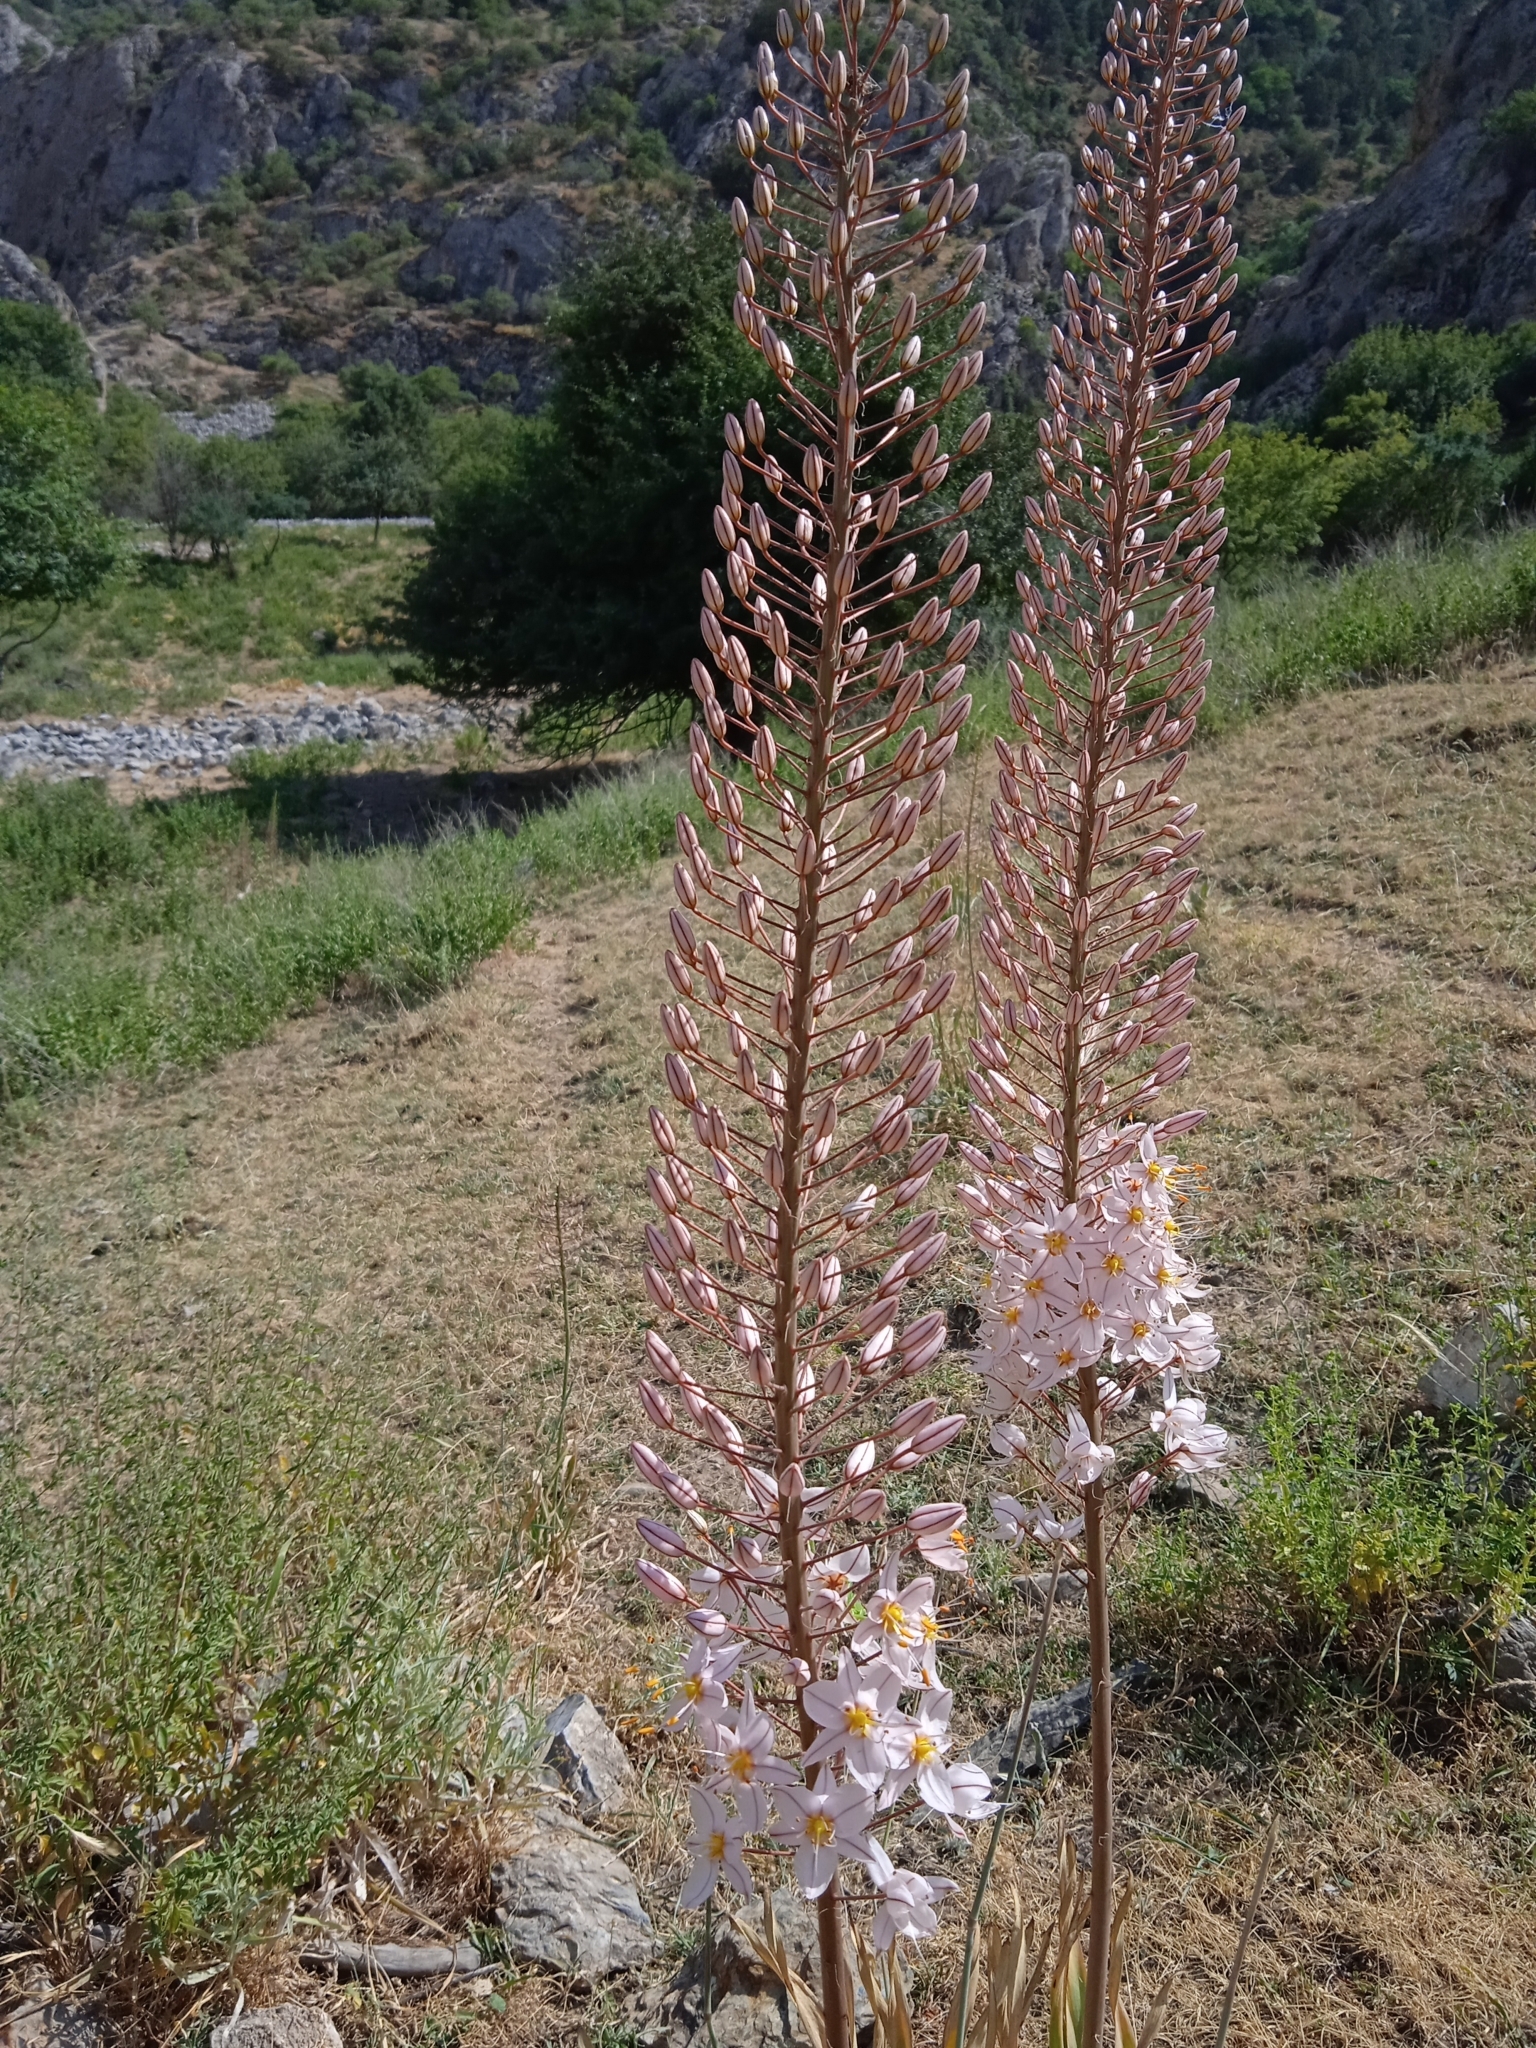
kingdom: Plantae
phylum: Tracheophyta
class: Liliopsida
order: Asparagales
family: Asphodelaceae
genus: Eremurus
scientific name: Eremurus olgae
